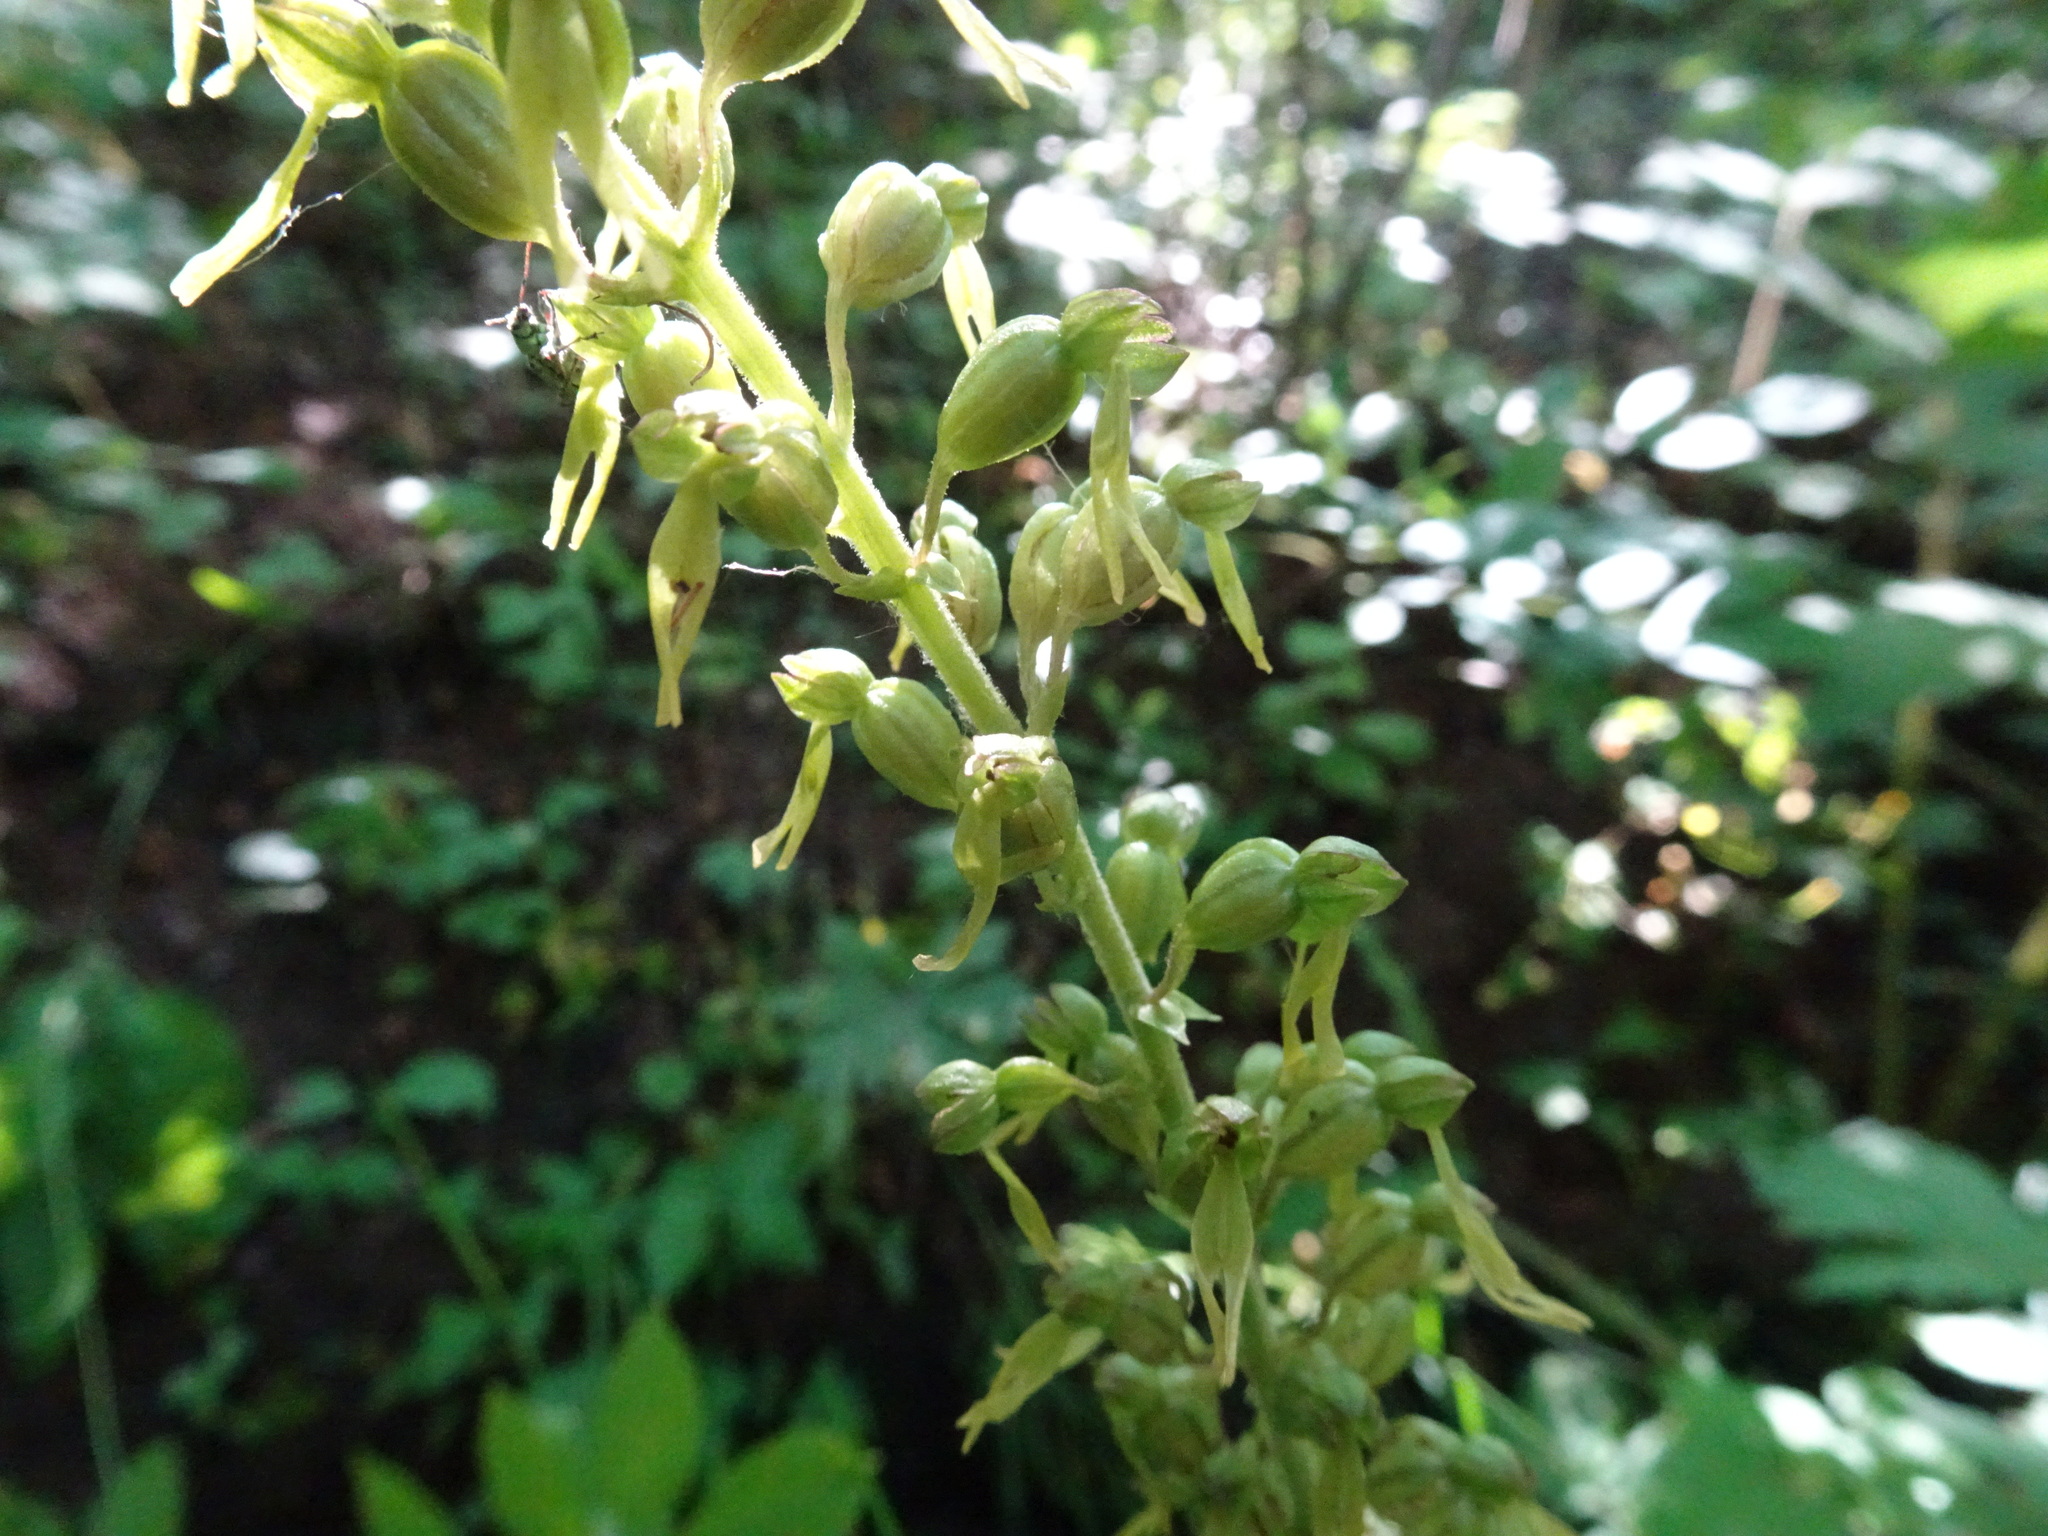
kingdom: Plantae
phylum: Tracheophyta
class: Liliopsida
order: Asparagales
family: Orchidaceae
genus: Neottia
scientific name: Neottia ovata
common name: Common twayblade
